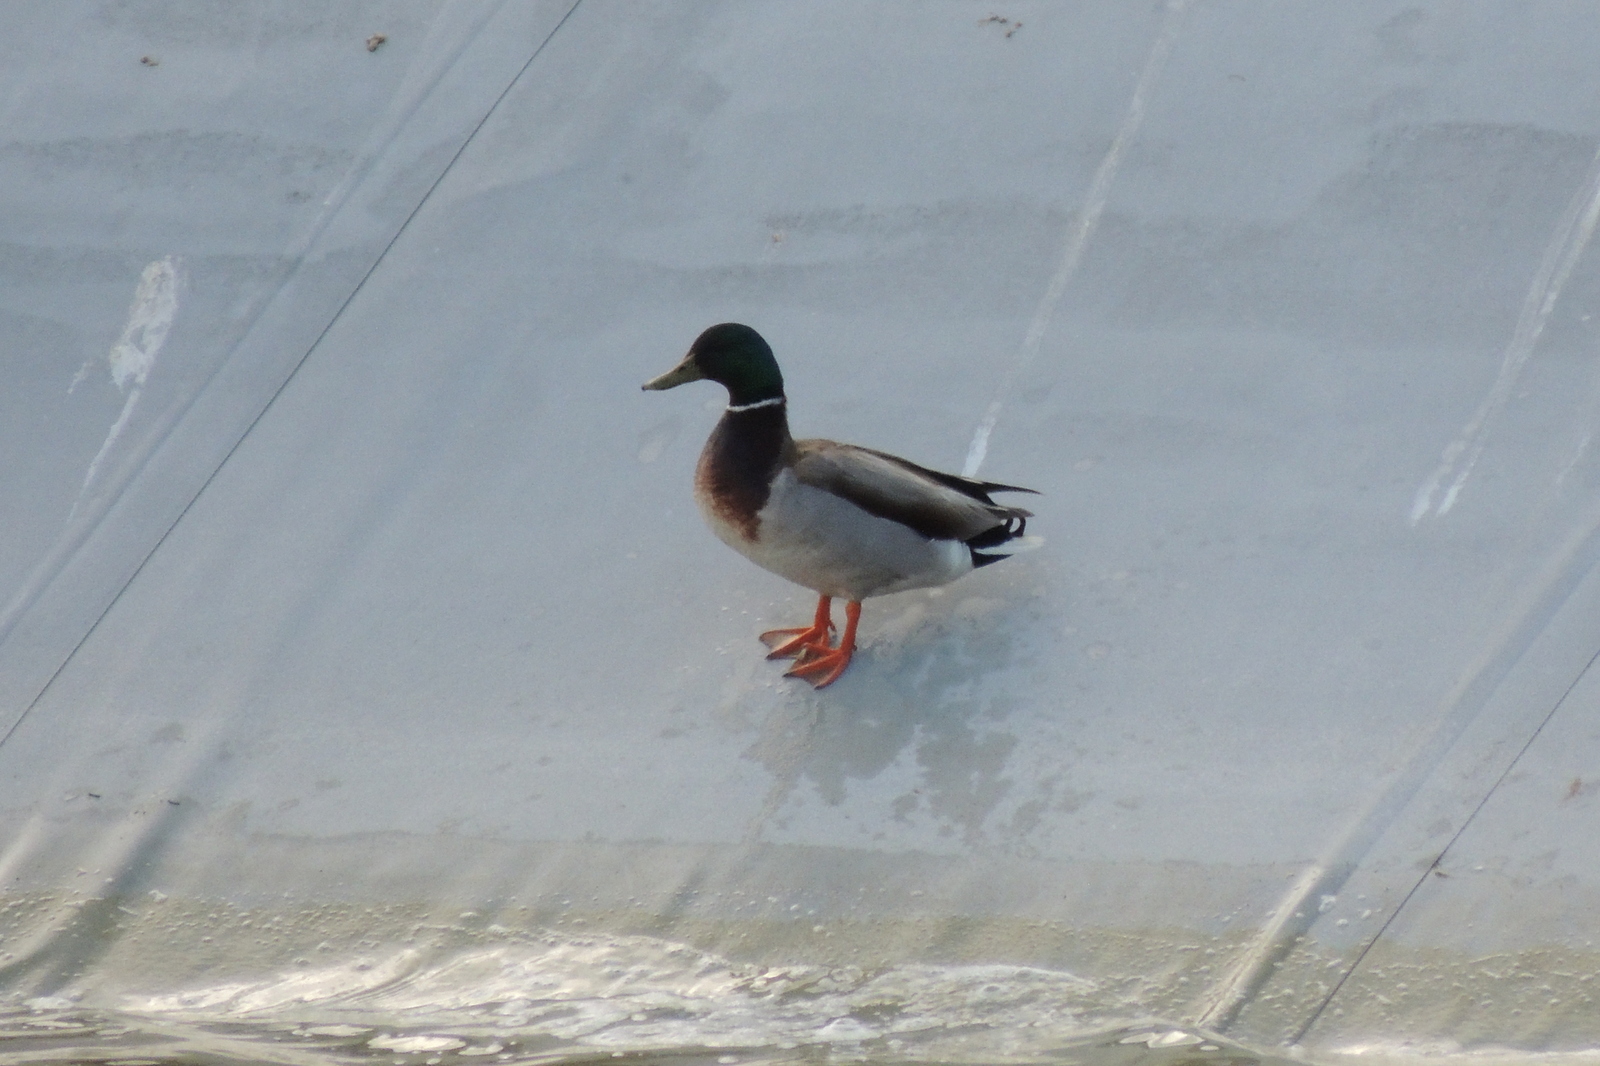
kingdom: Animalia
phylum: Chordata
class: Aves
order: Anseriformes
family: Anatidae
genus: Anas
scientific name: Anas platyrhynchos
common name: Mallard
